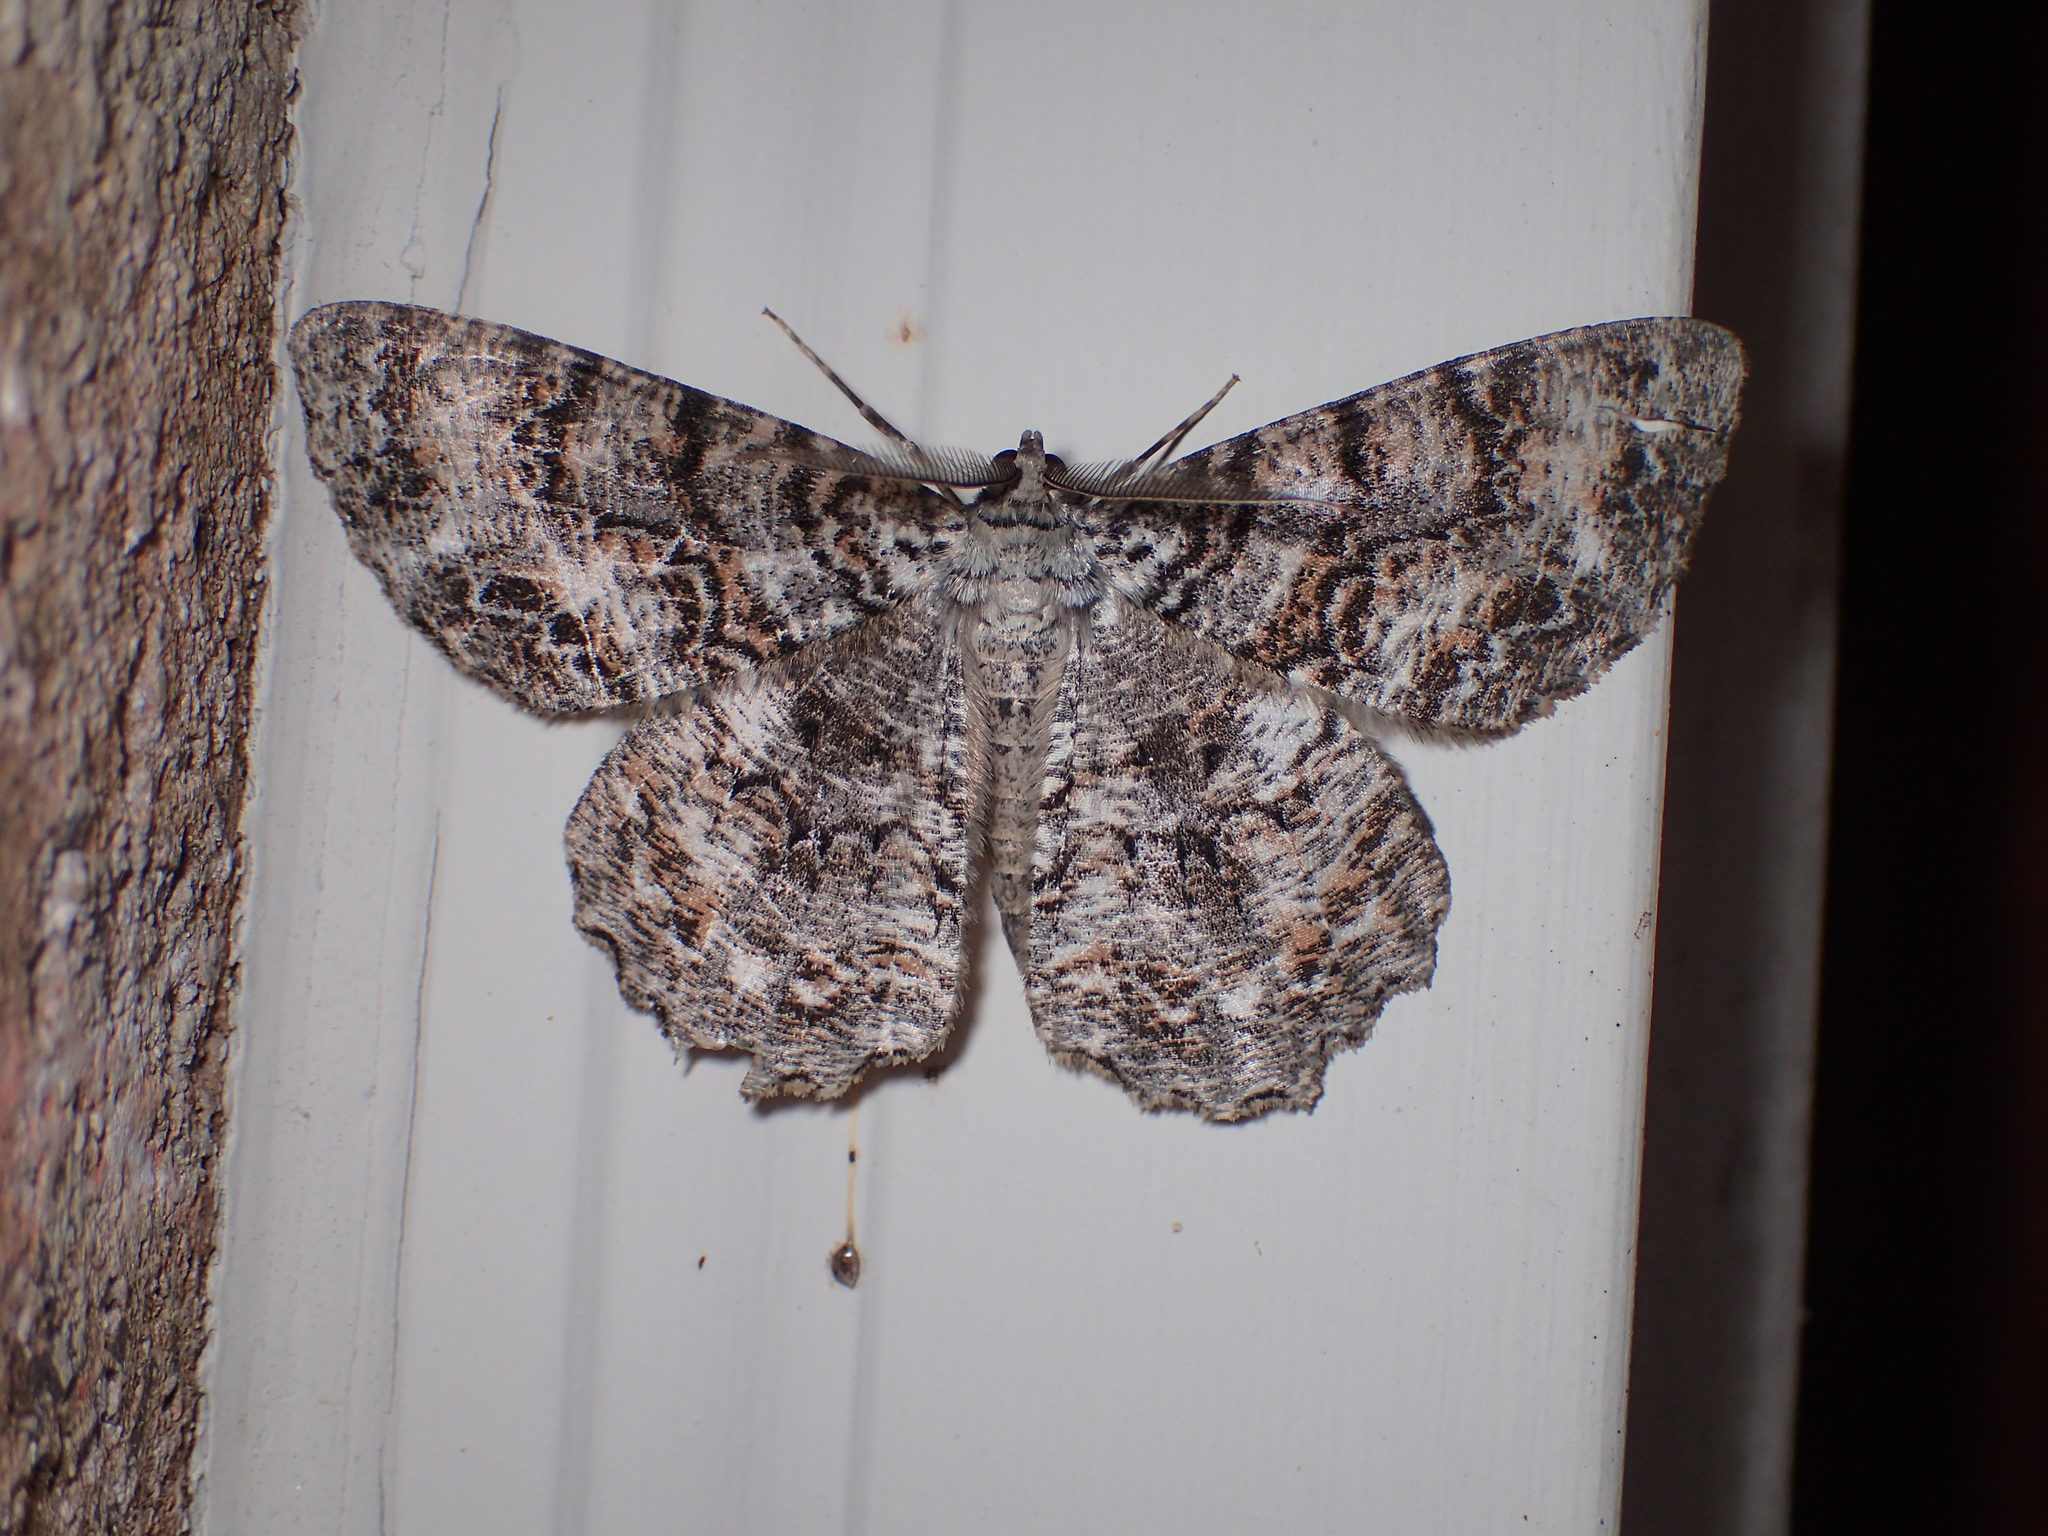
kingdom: Animalia
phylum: Arthropoda
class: Insecta
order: Lepidoptera
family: Geometridae
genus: Epimecis
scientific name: Epimecis hortaria
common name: Tulip-tree beauty
